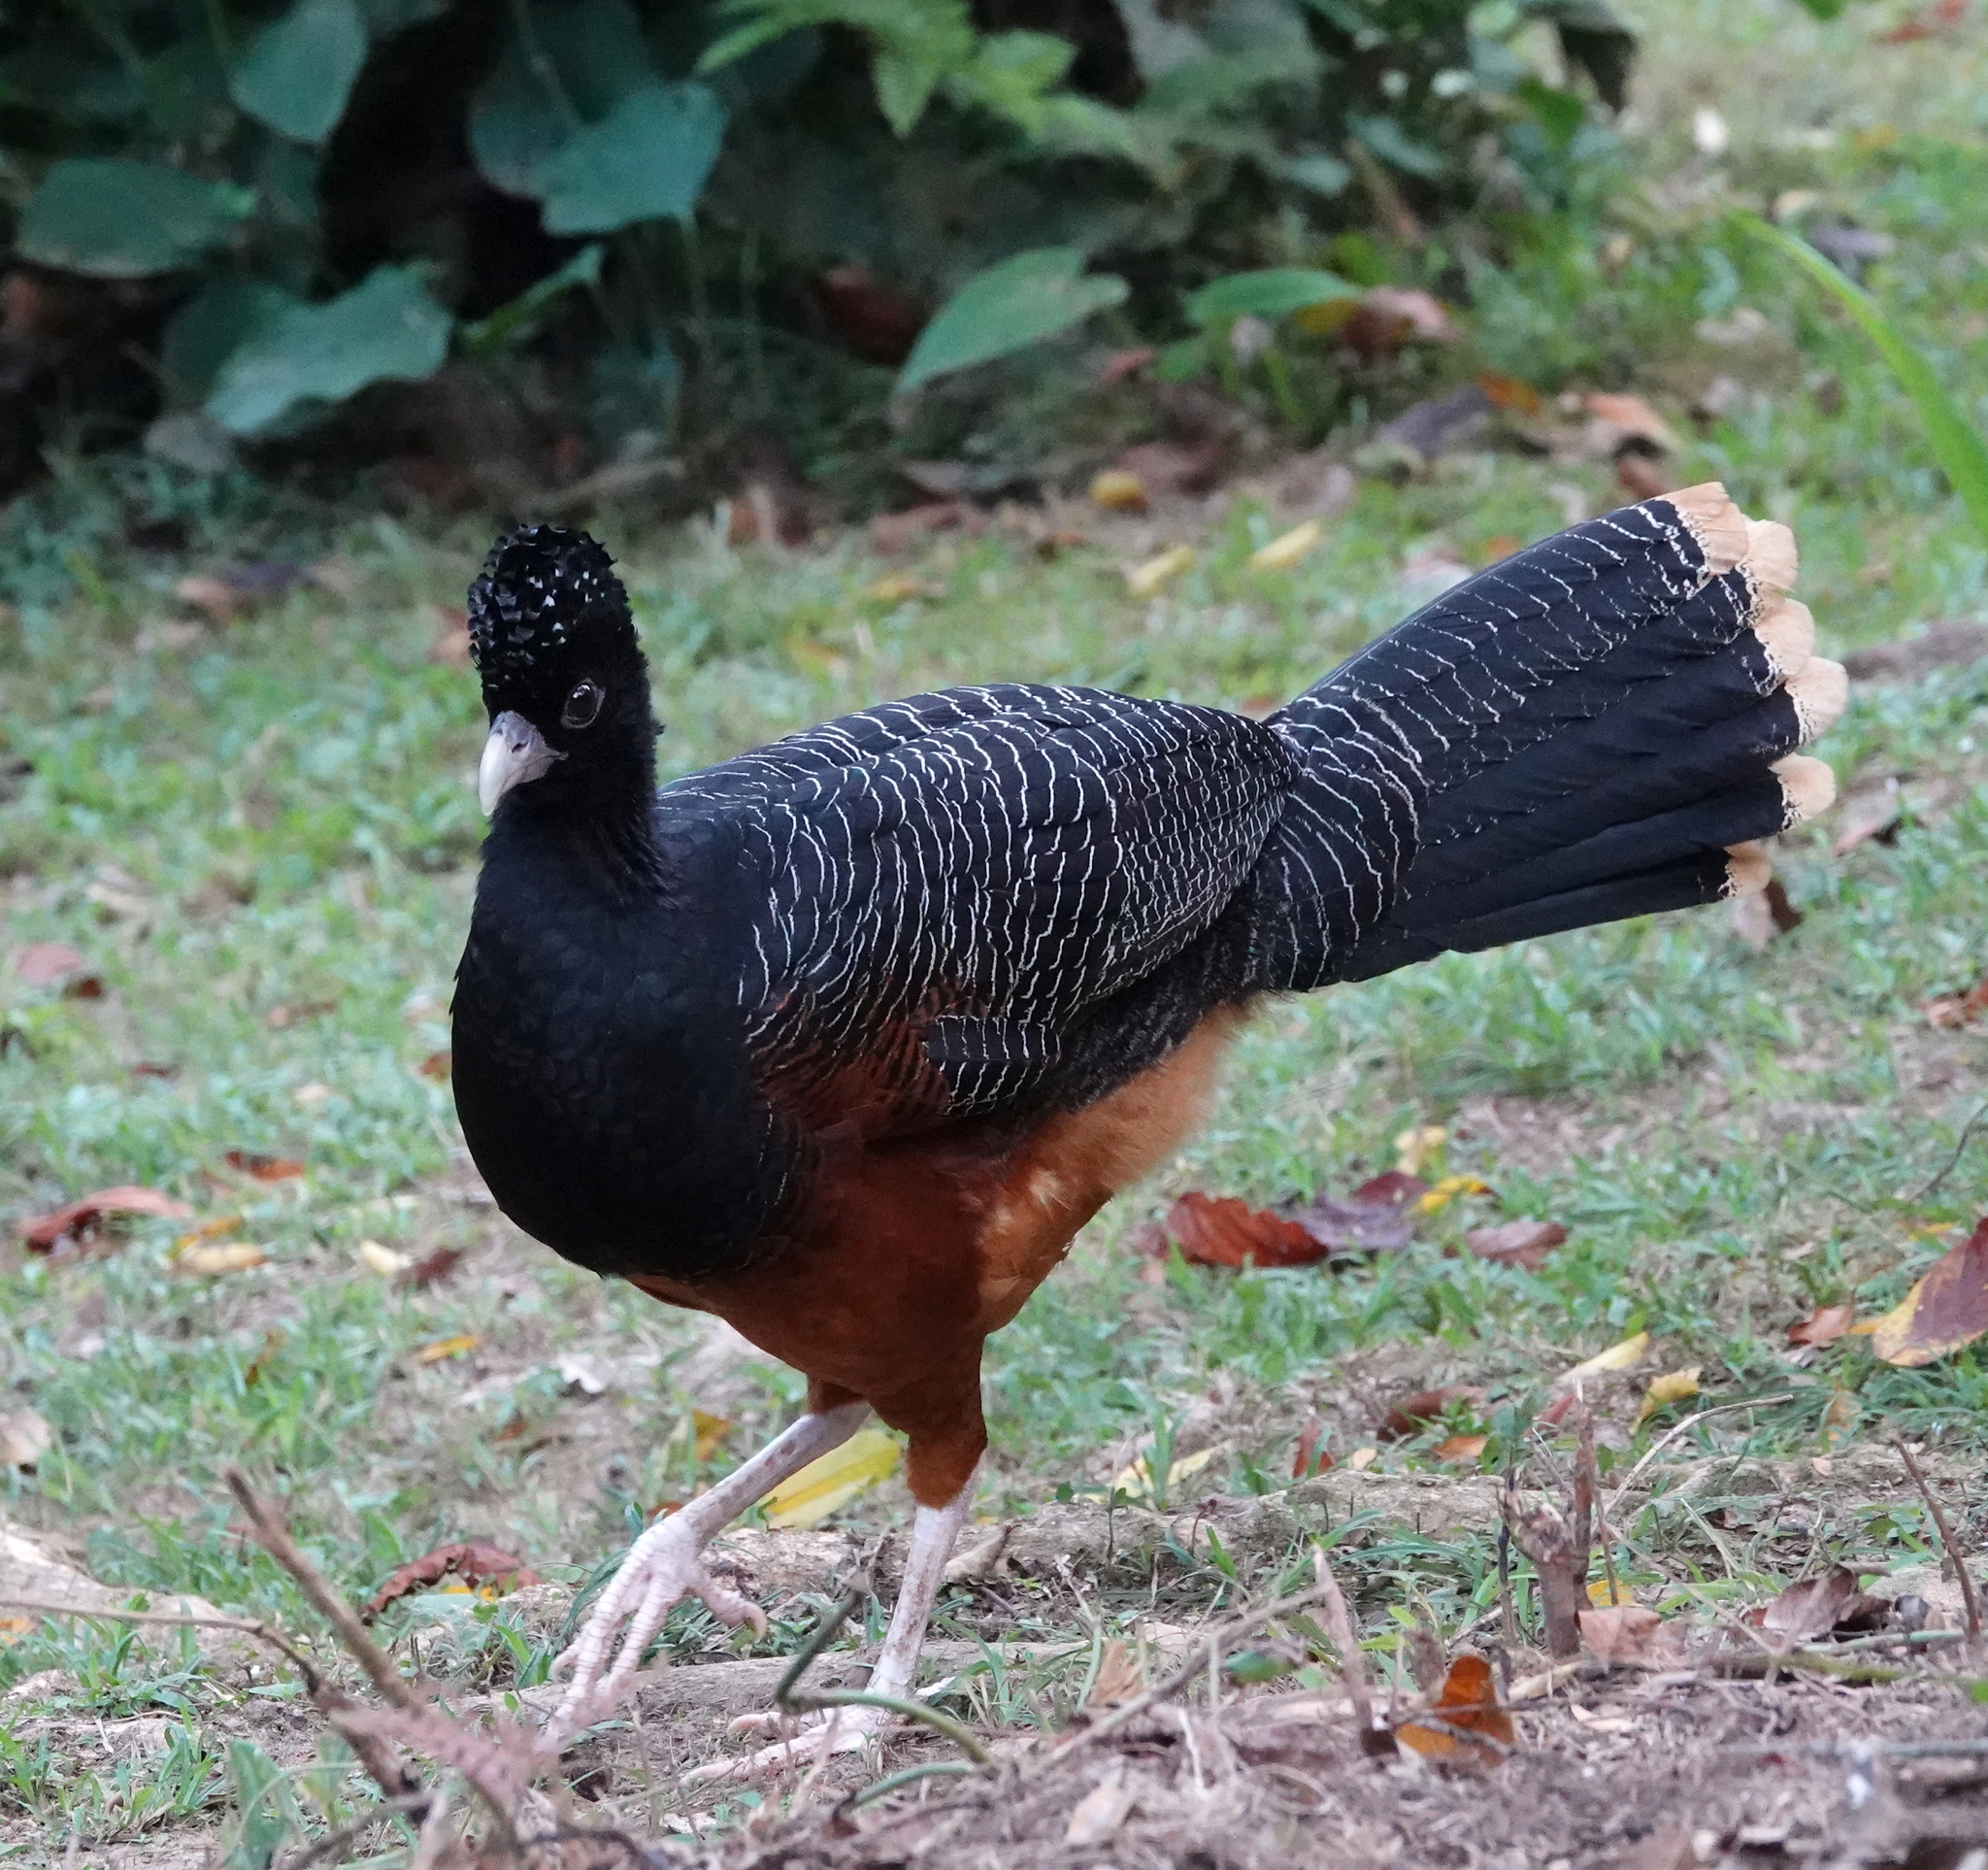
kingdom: Animalia
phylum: Chordata
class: Aves
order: Galliformes
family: Cracidae
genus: Crax
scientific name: Crax alberti
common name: Blue-billed curassow
